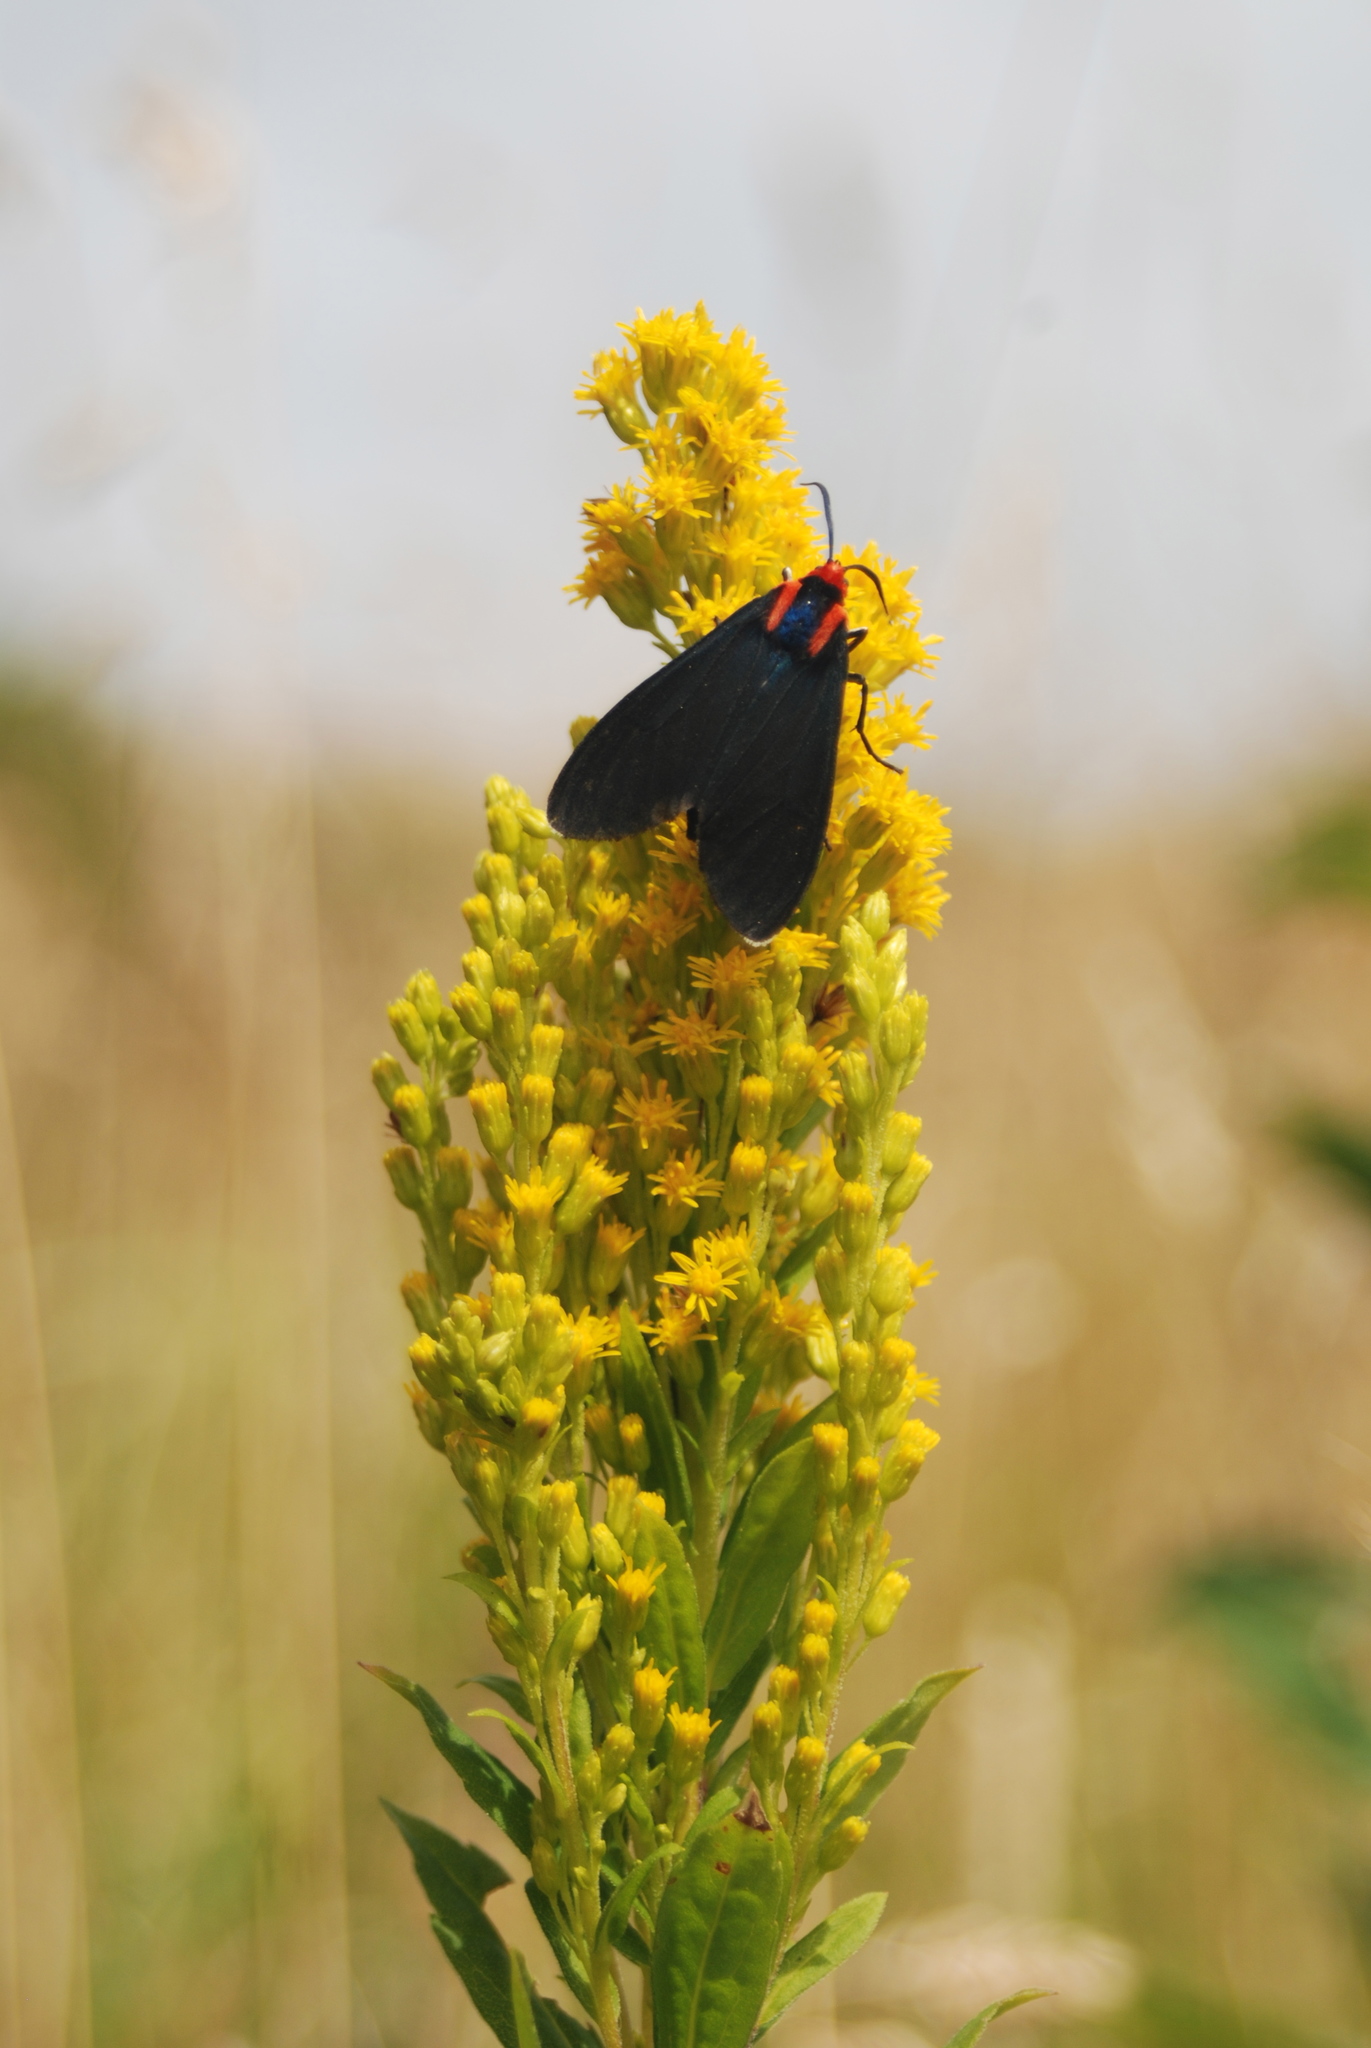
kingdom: Animalia
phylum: Arthropoda
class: Insecta
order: Lepidoptera
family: Erebidae
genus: Ctenucha
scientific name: Ctenucha rubroscapus
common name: Red-shouldered ctenucha
